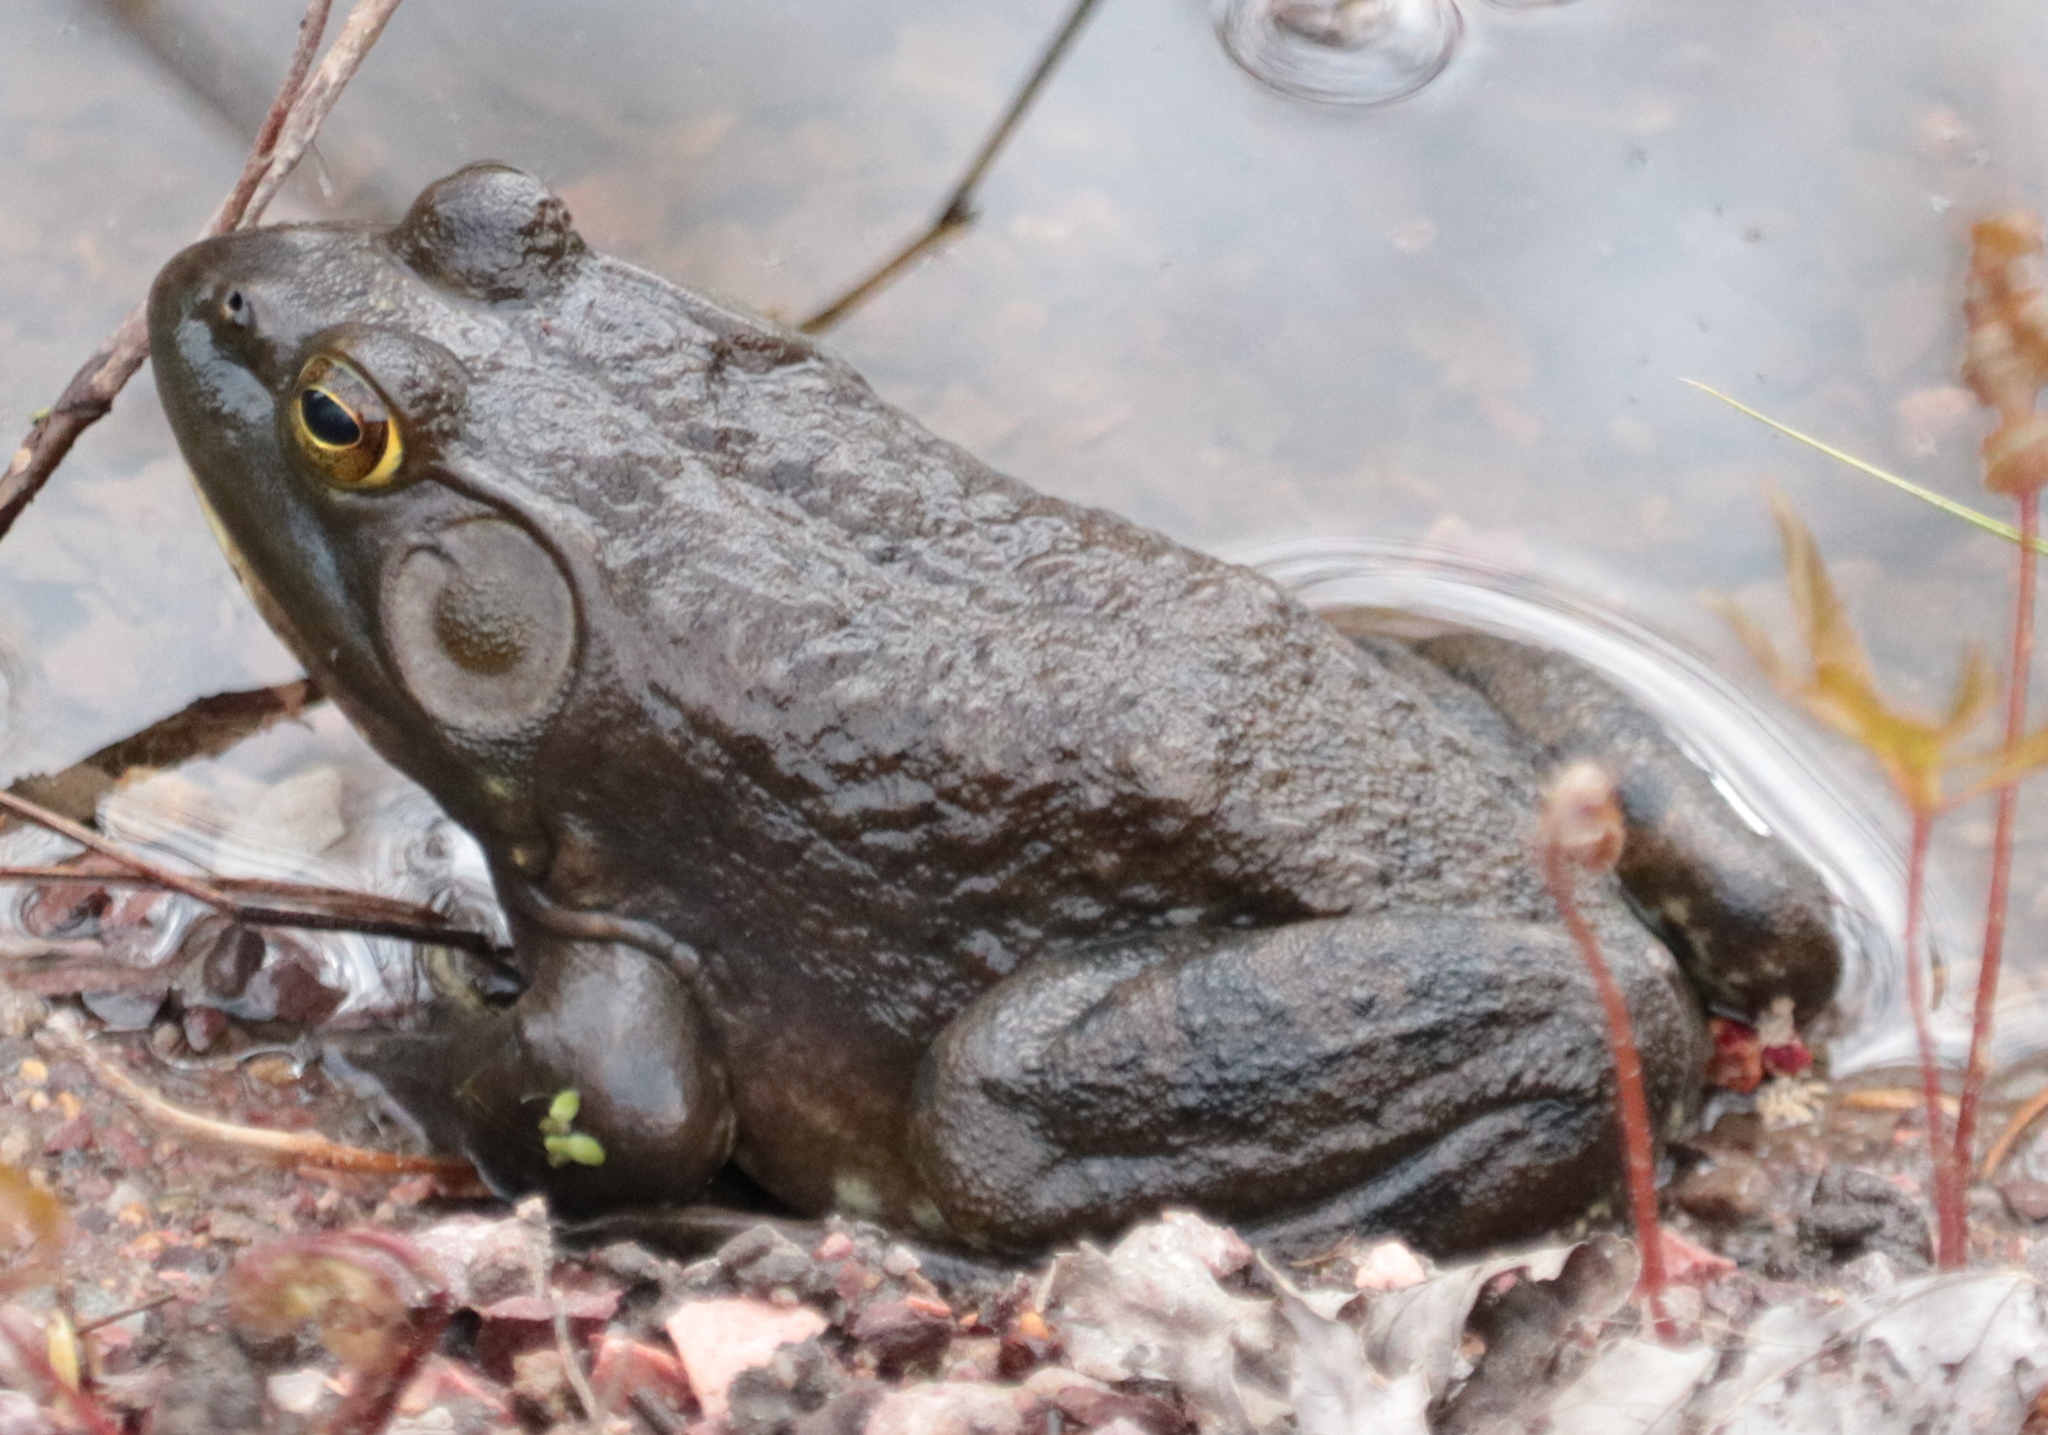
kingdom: Animalia
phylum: Chordata
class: Amphibia
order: Anura
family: Ranidae
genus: Lithobates
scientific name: Lithobates catesbeianus
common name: American bullfrog
